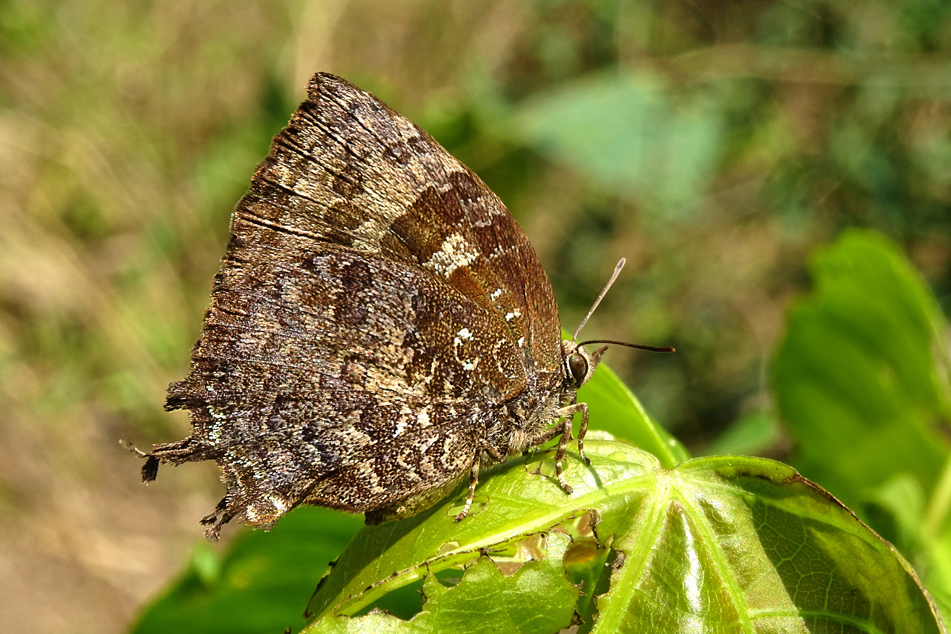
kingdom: Animalia
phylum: Arthropoda
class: Insecta
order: Lepidoptera
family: Lycaenidae
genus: Thaduka
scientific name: Thaduka multicaudata
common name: Many-tailed oakblue
